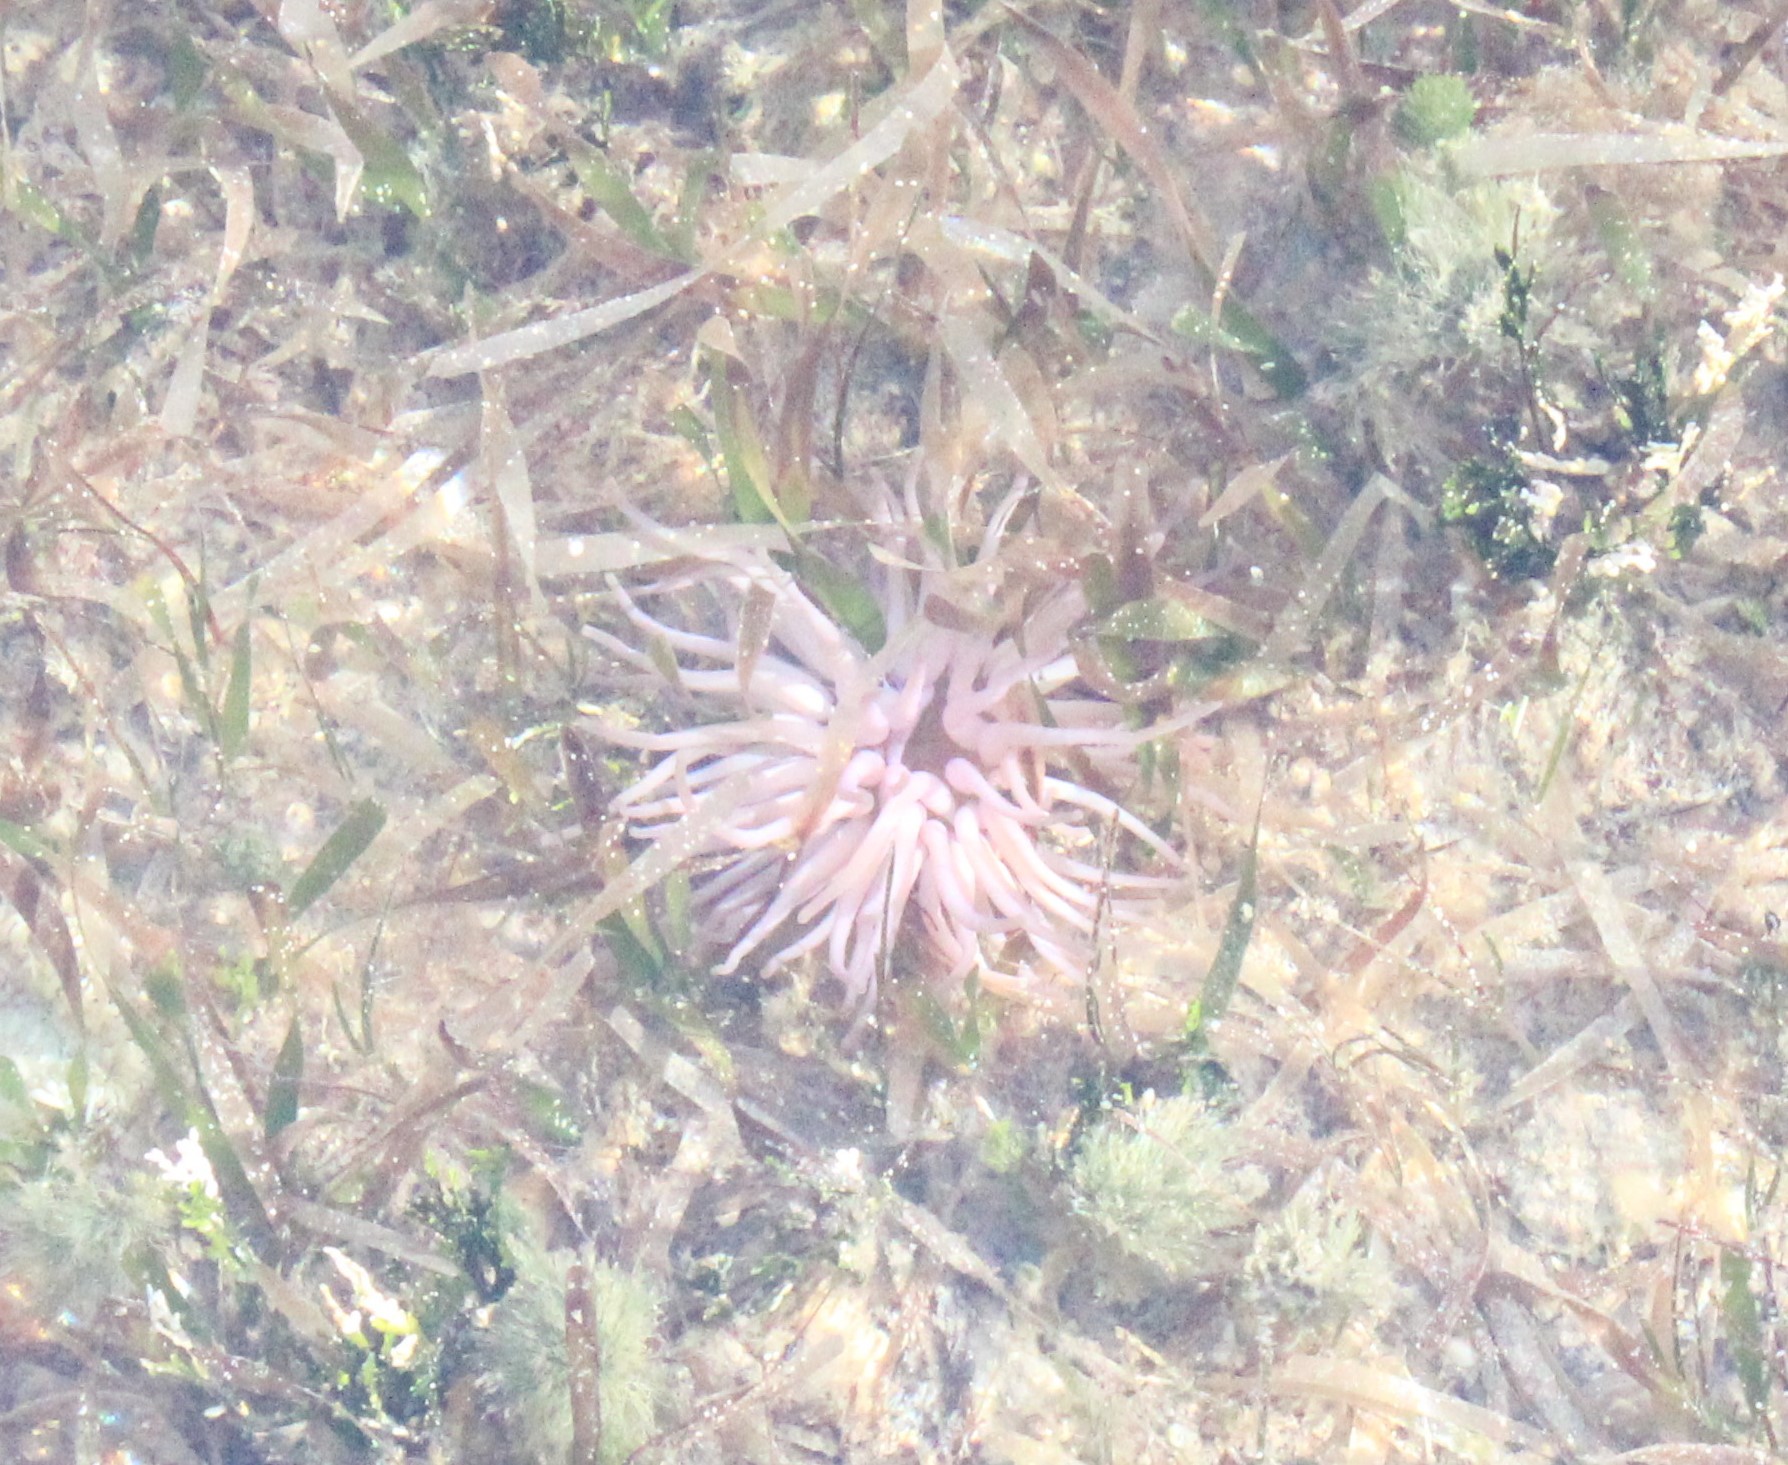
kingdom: Animalia
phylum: Cnidaria
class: Anthozoa
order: Actiniaria
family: Actiniidae
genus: Condylactis
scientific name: Condylactis gigantea
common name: Giant caribbean anemone
